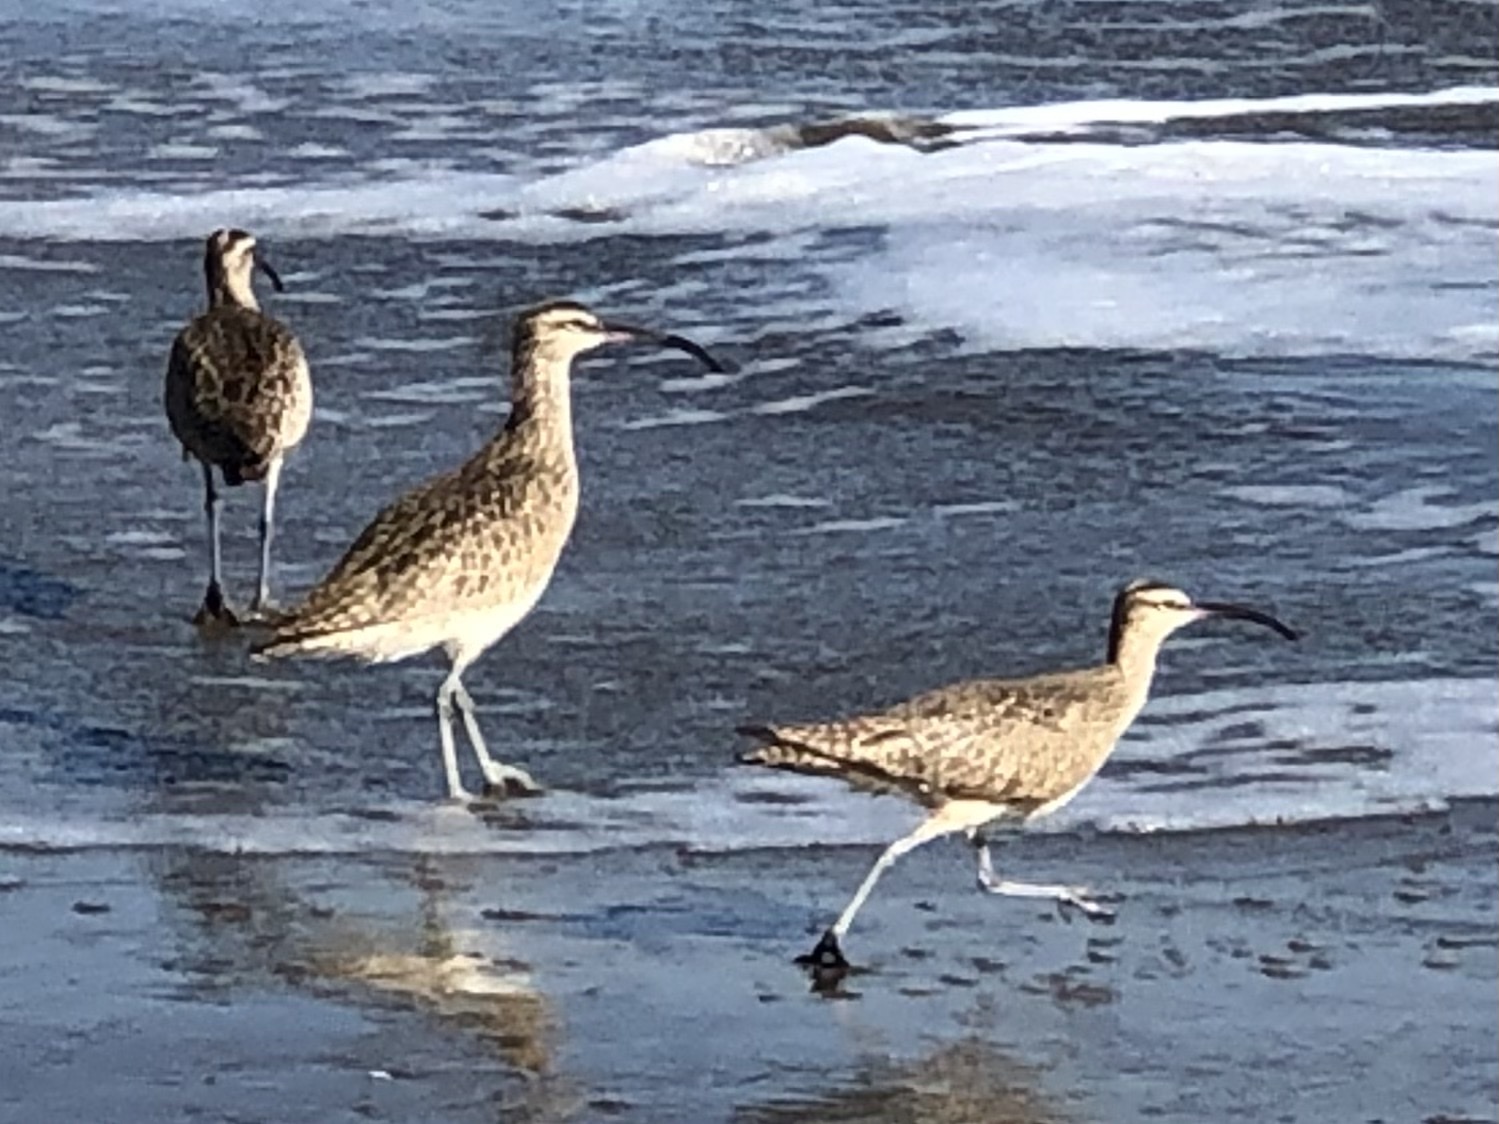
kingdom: Animalia
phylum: Chordata
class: Aves
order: Charadriiformes
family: Scolopacidae
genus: Numenius
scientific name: Numenius phaeopus
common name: Whimbrel
